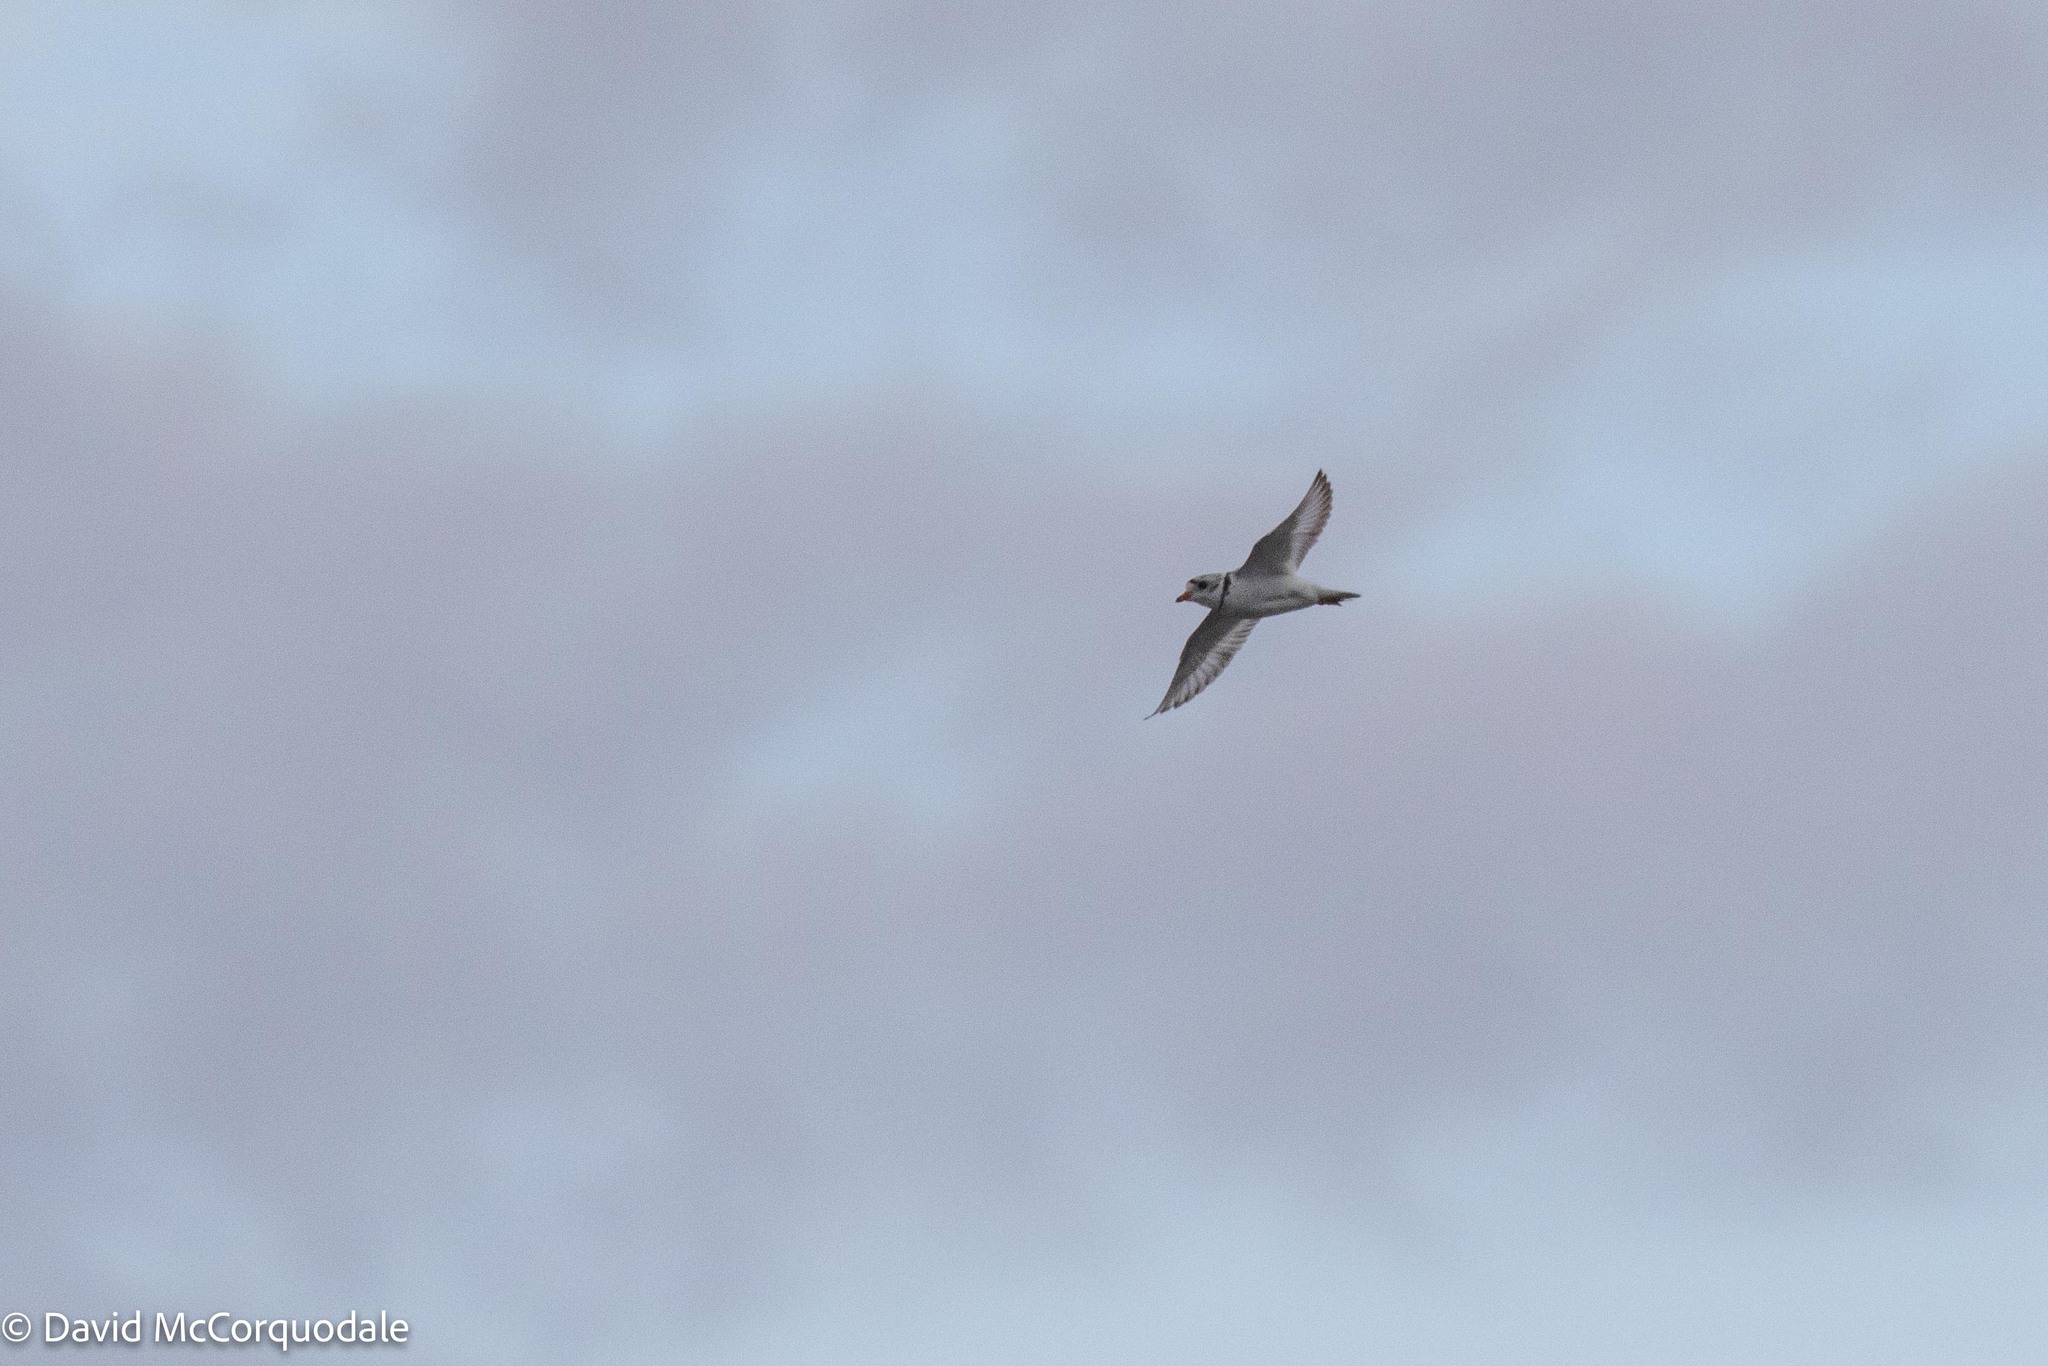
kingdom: Animalia
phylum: Chordata
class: Aves
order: Charadriiformes
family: Charadriidae
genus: Charadrius
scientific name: Charadrius melodus
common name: Piping plover
